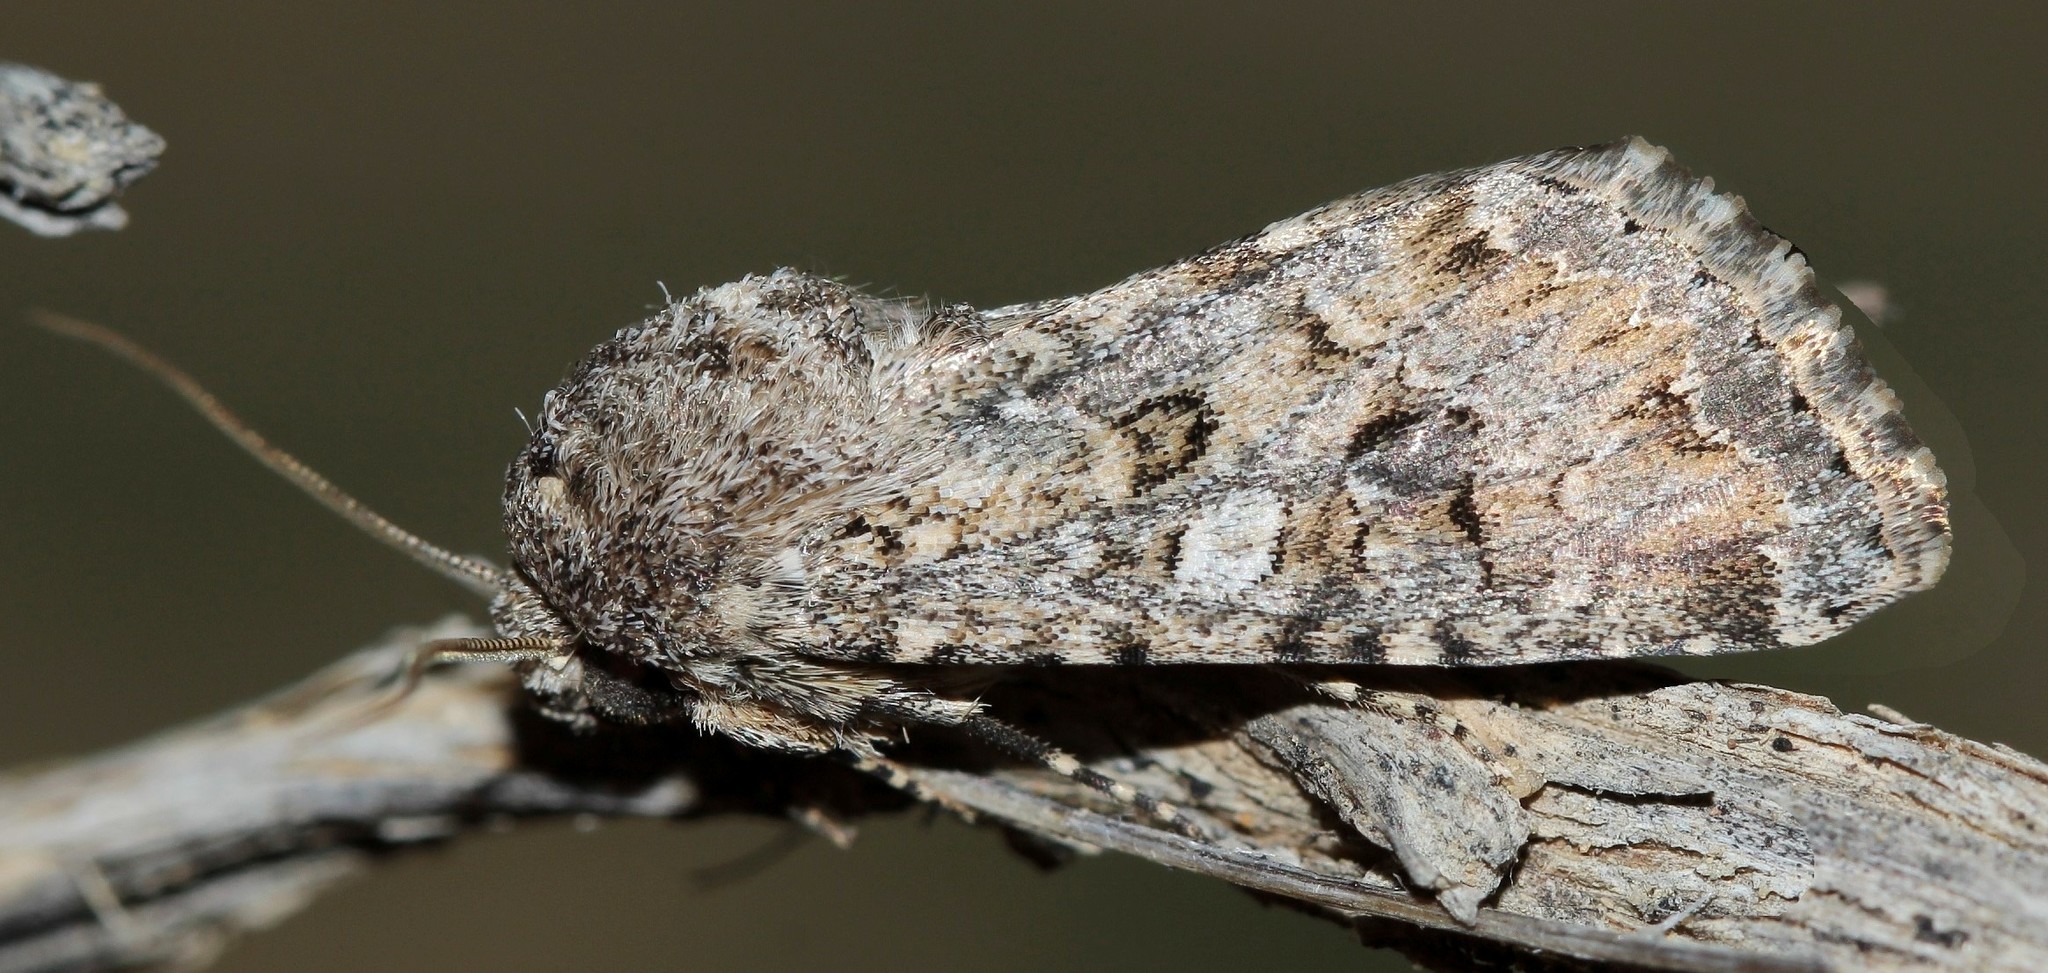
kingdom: Animalia
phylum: Arthropoda
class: Insecta
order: Lepidoptera
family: Noctuidae
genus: Cardepia
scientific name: Cardepia irrisoria
